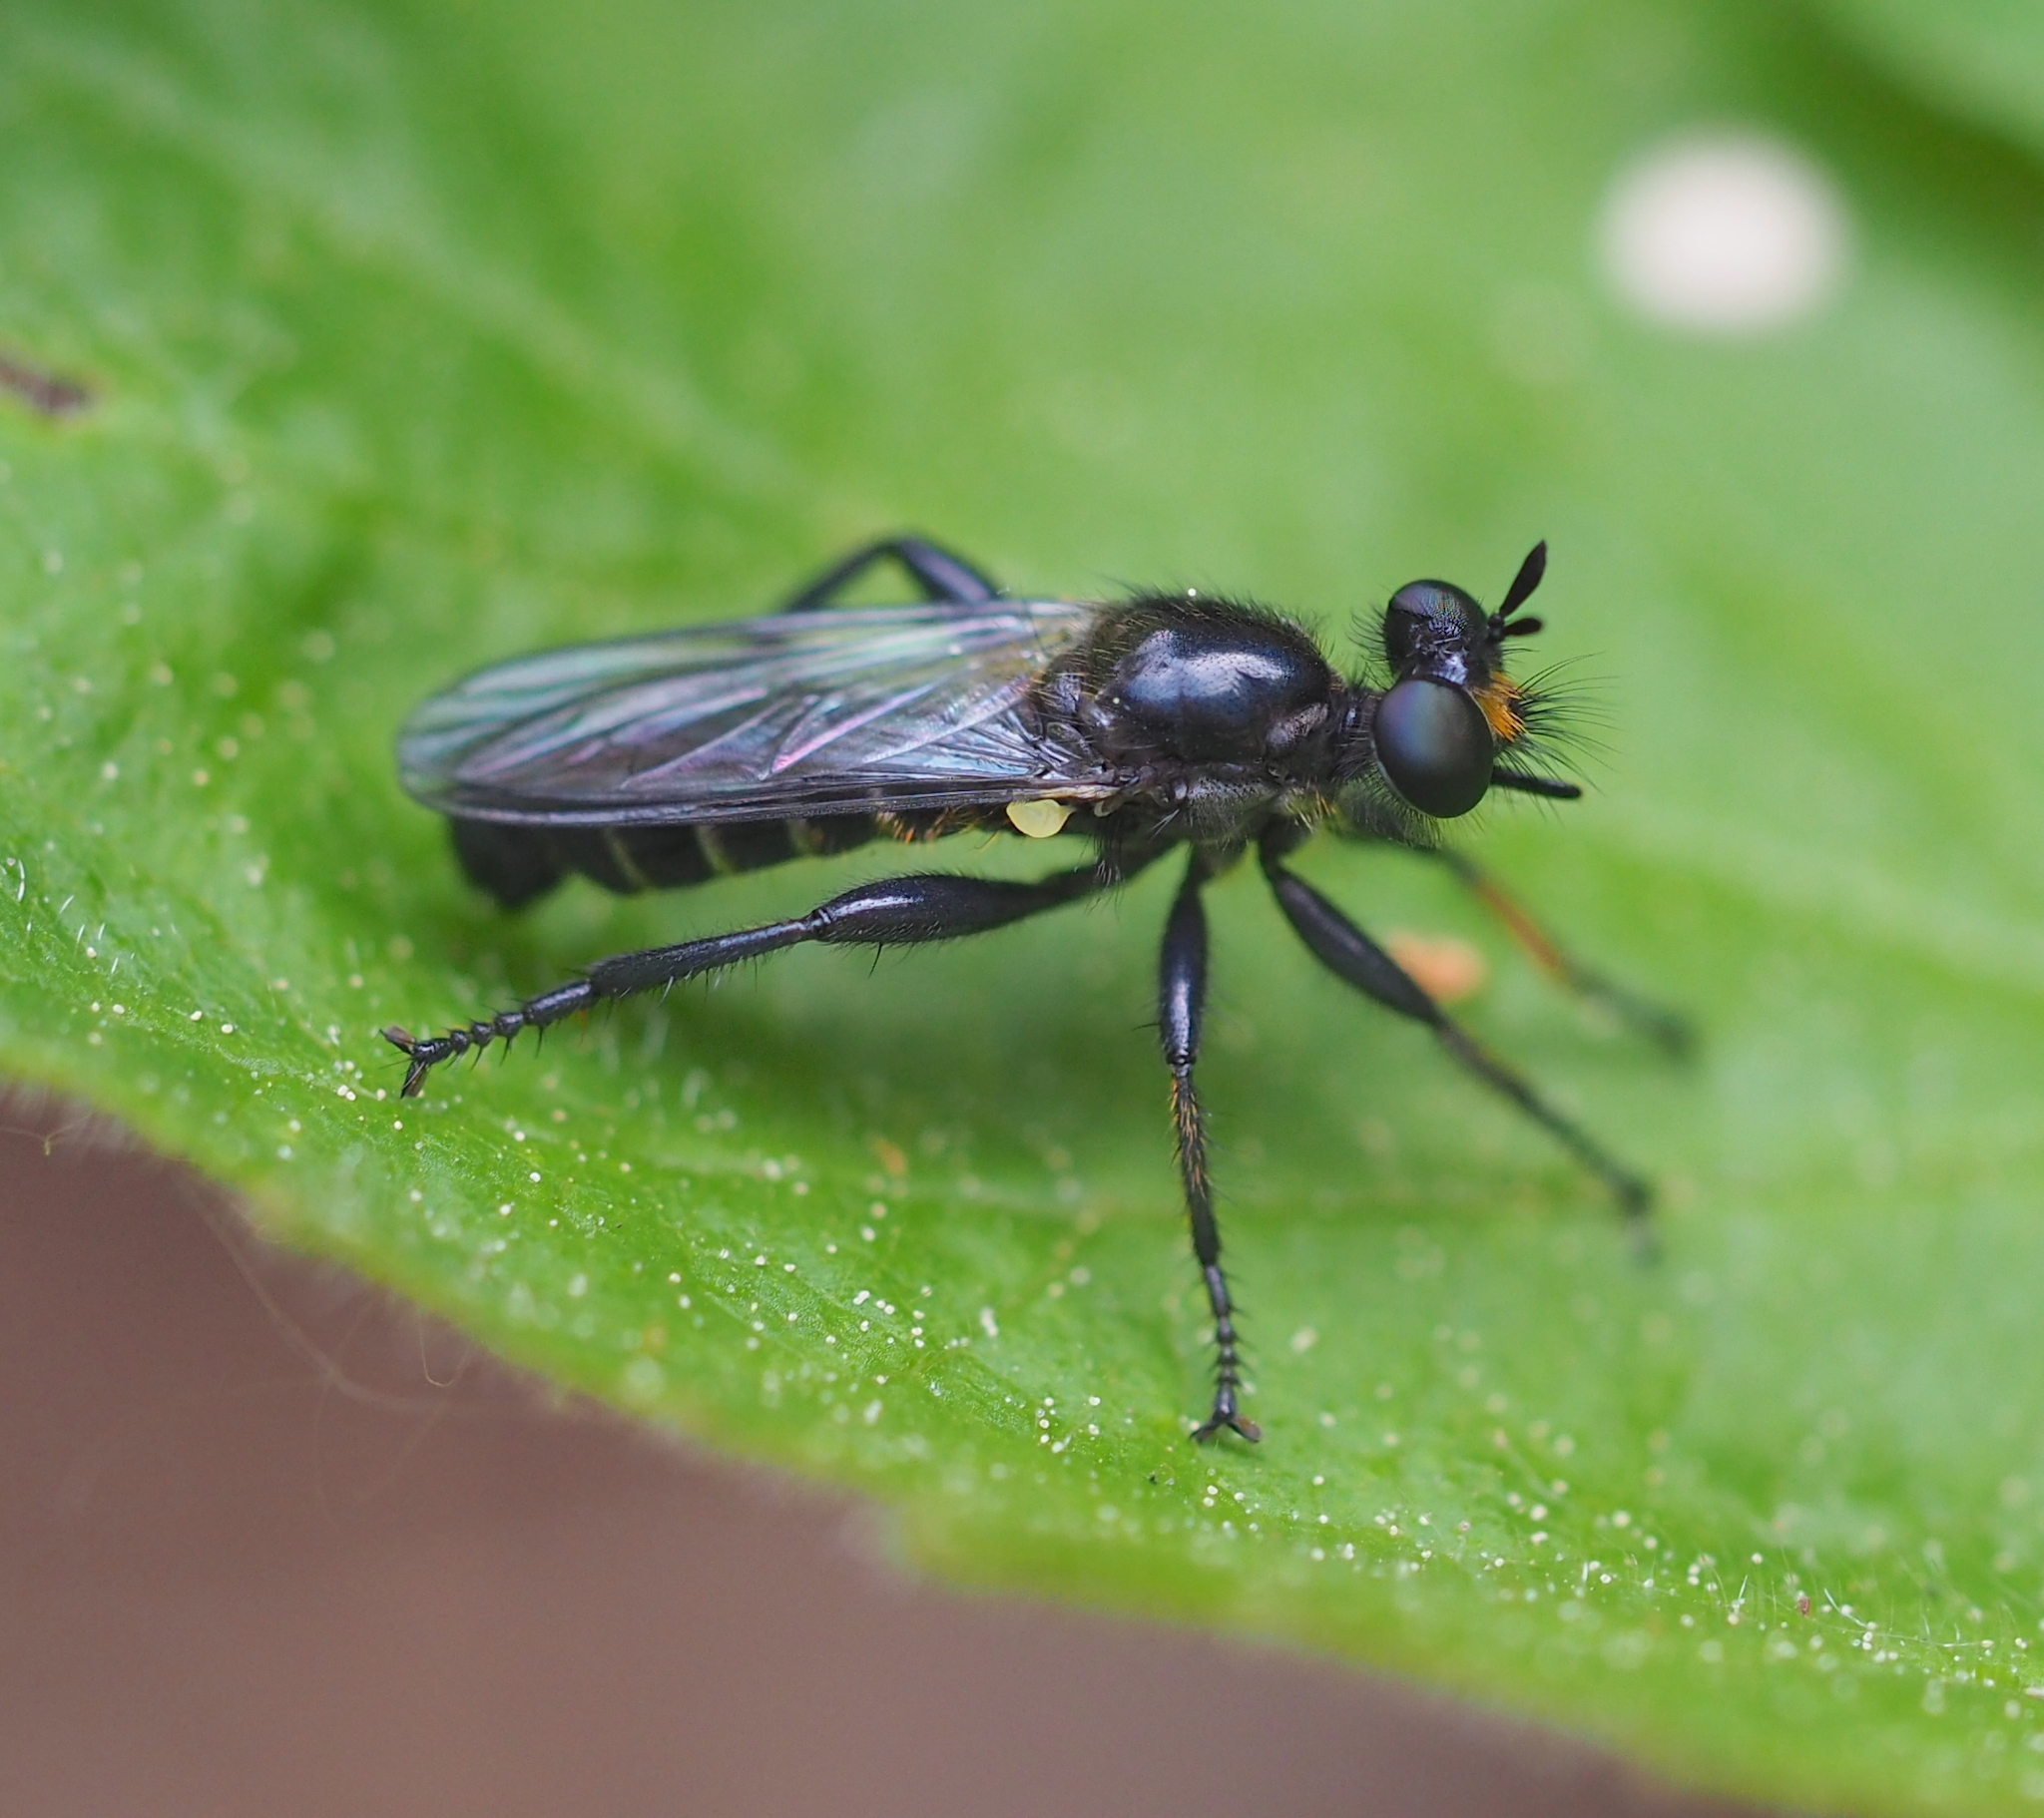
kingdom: Animalia
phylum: Arthropoda
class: Insecta
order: Diptera
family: Asilidae
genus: Lamyra
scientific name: Lamyra marginata
